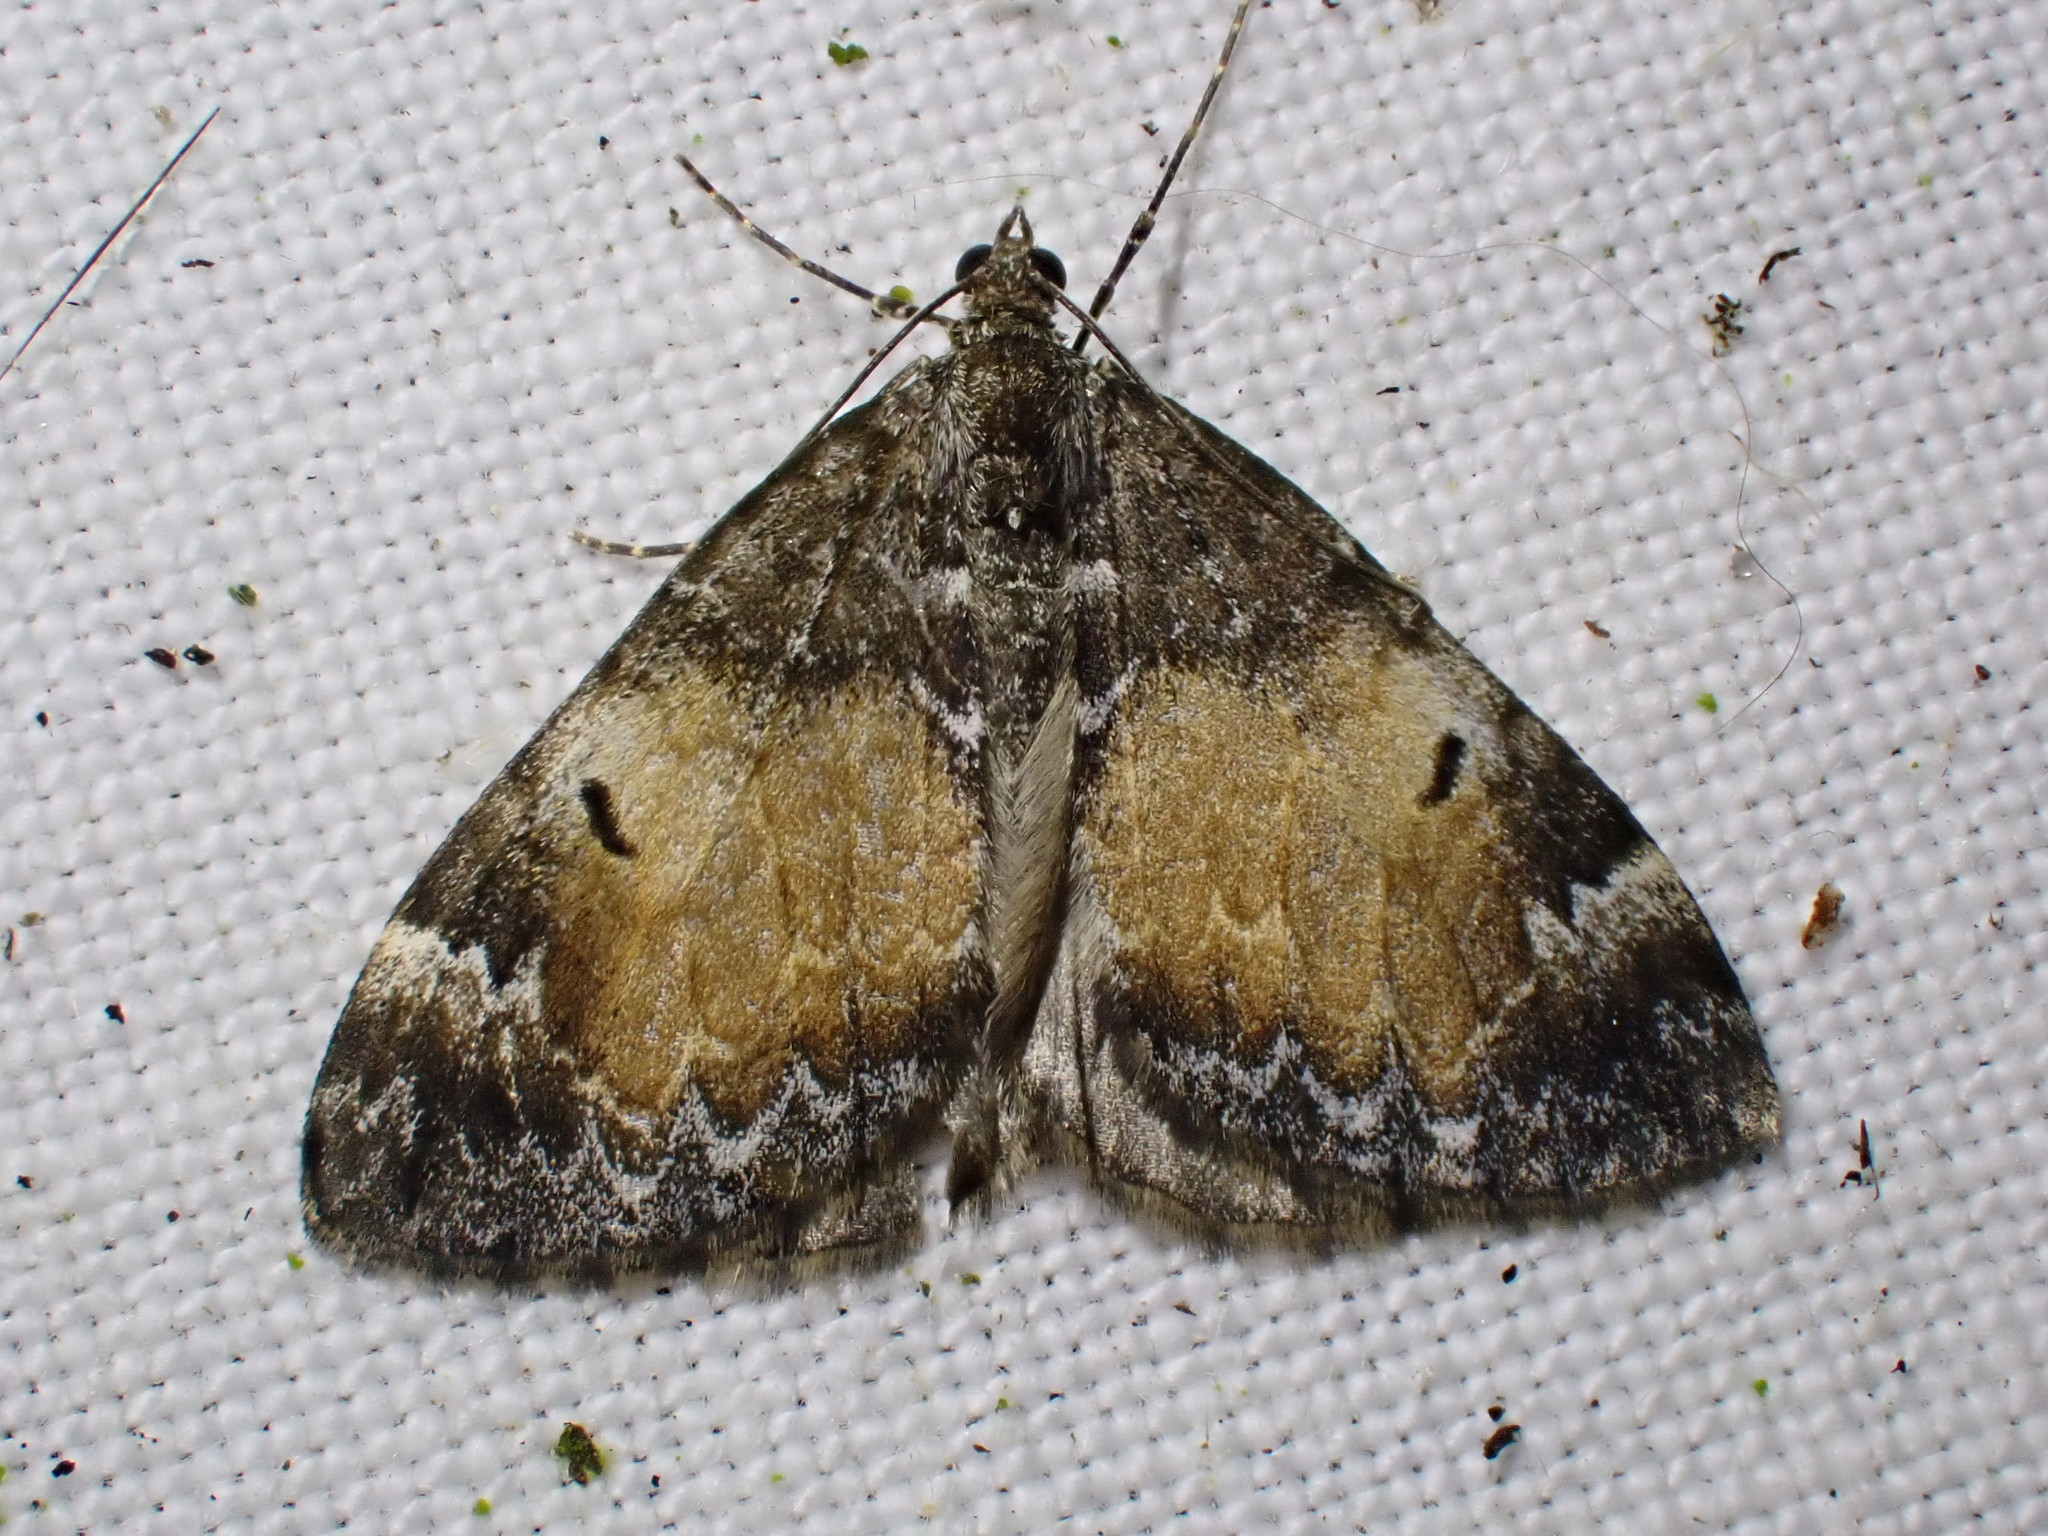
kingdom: Animalia
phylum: Arthropoda
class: Insecta
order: Lepidoptera
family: Geometridae
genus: Dysstroma
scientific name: Dysstroma truncata
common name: Common marbled carpet
